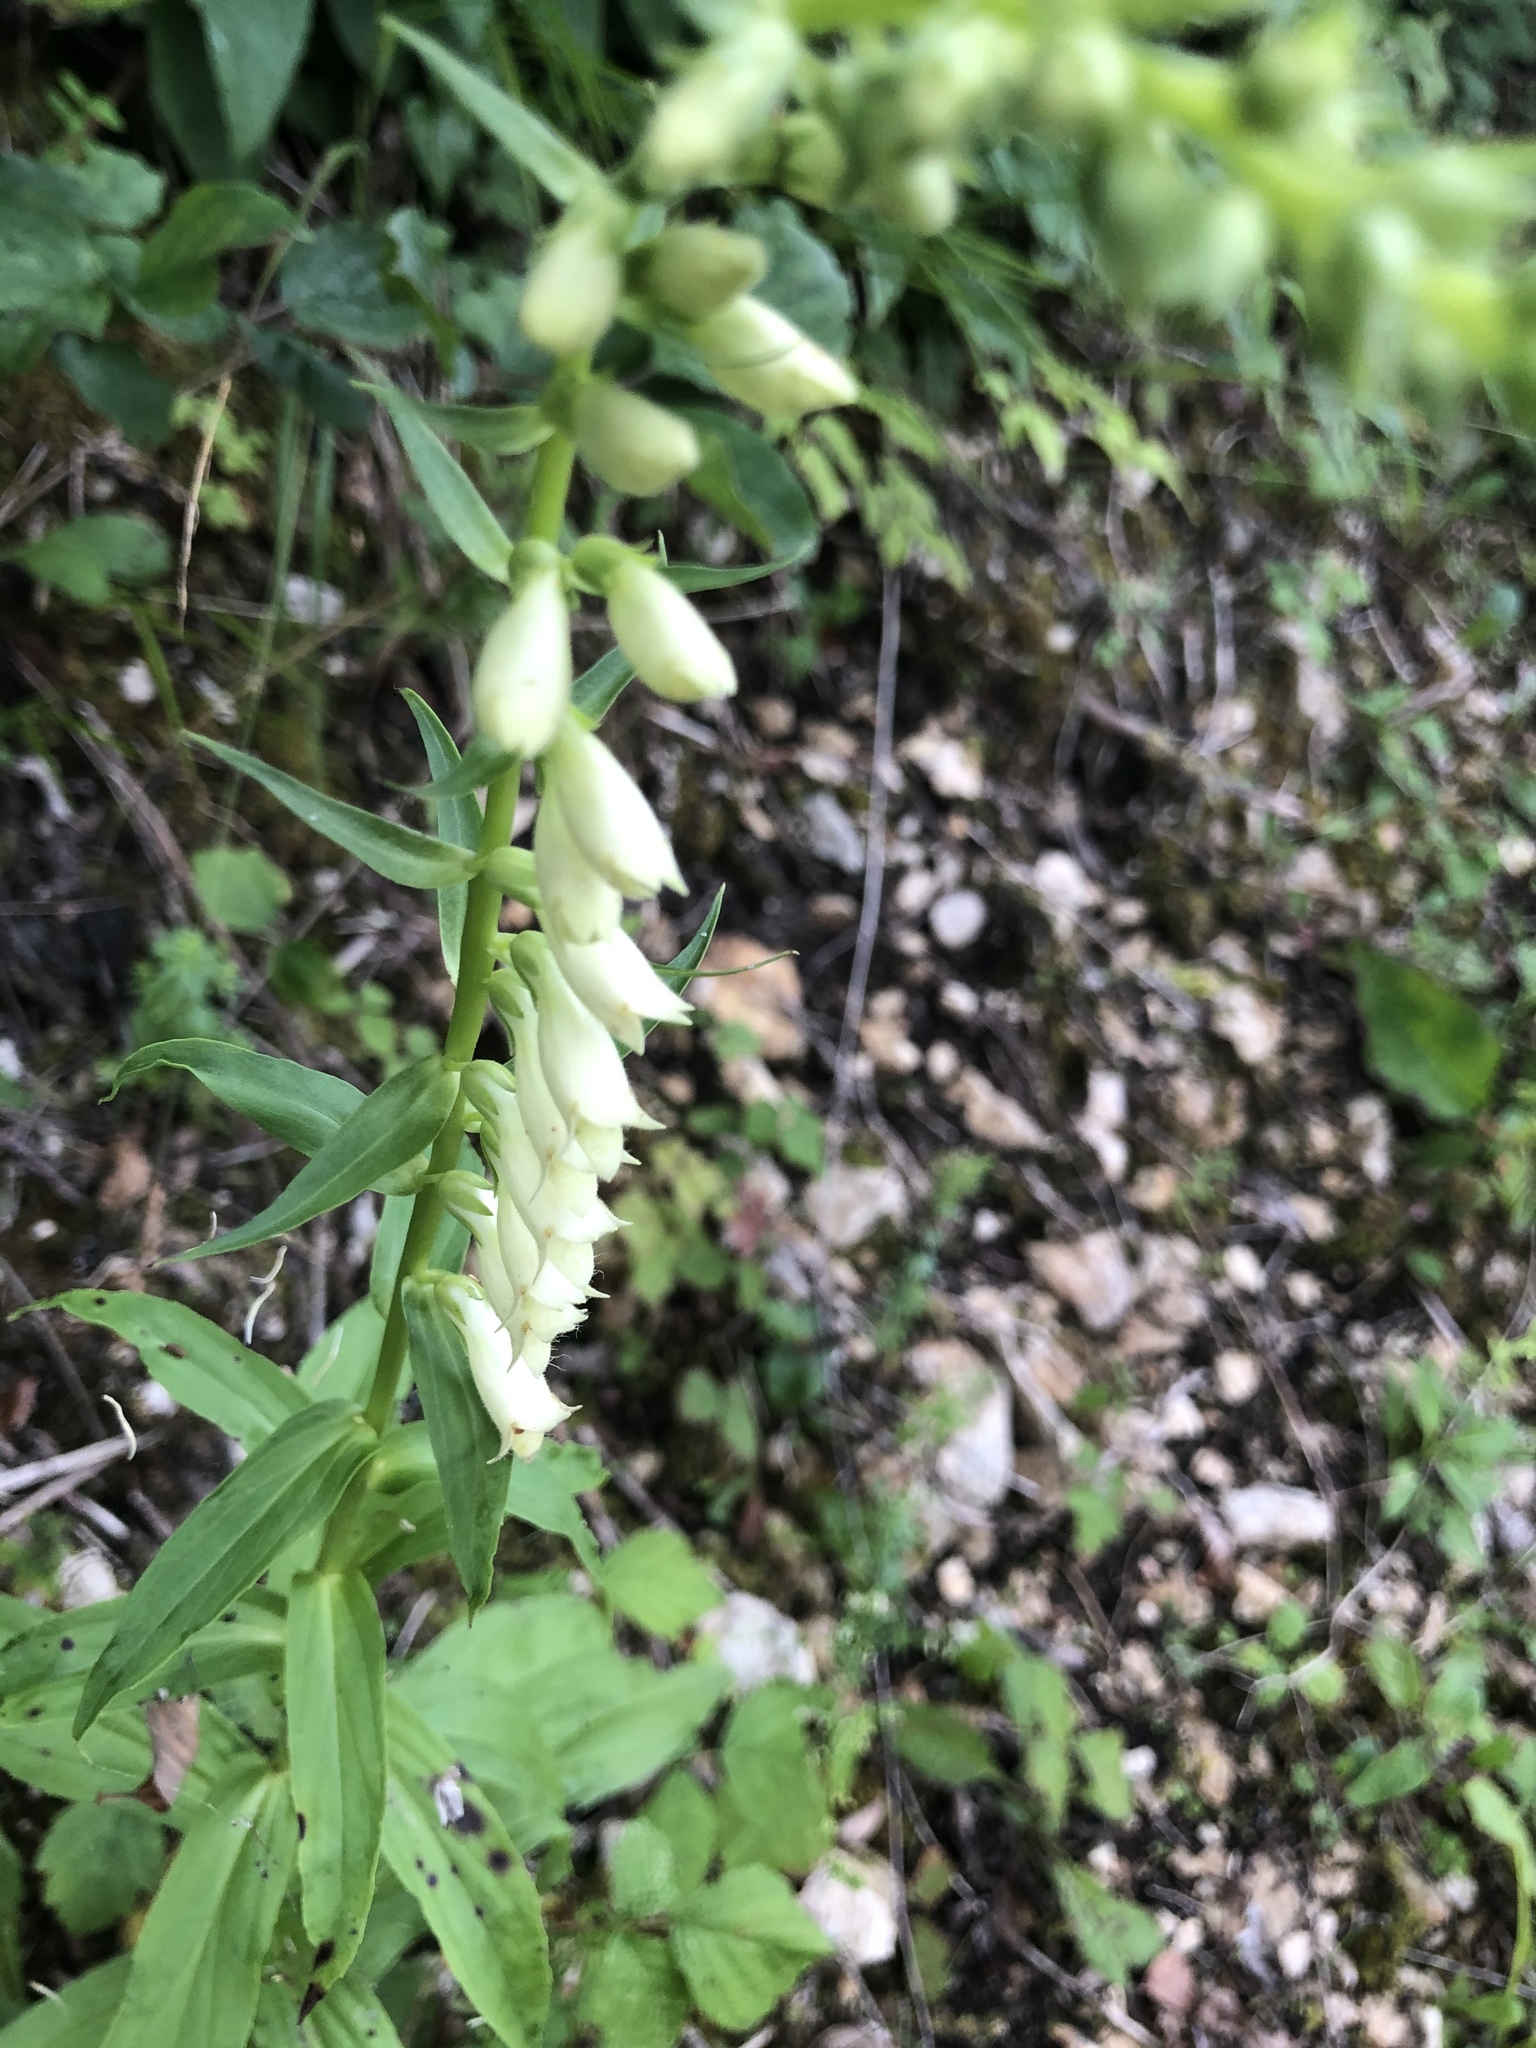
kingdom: Plantae
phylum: Tracheophyta
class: Magnoliopsida
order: Lamiales
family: Plantaginaceae
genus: Digitalis
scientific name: Digitalis lutea
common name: Straw foxglove
